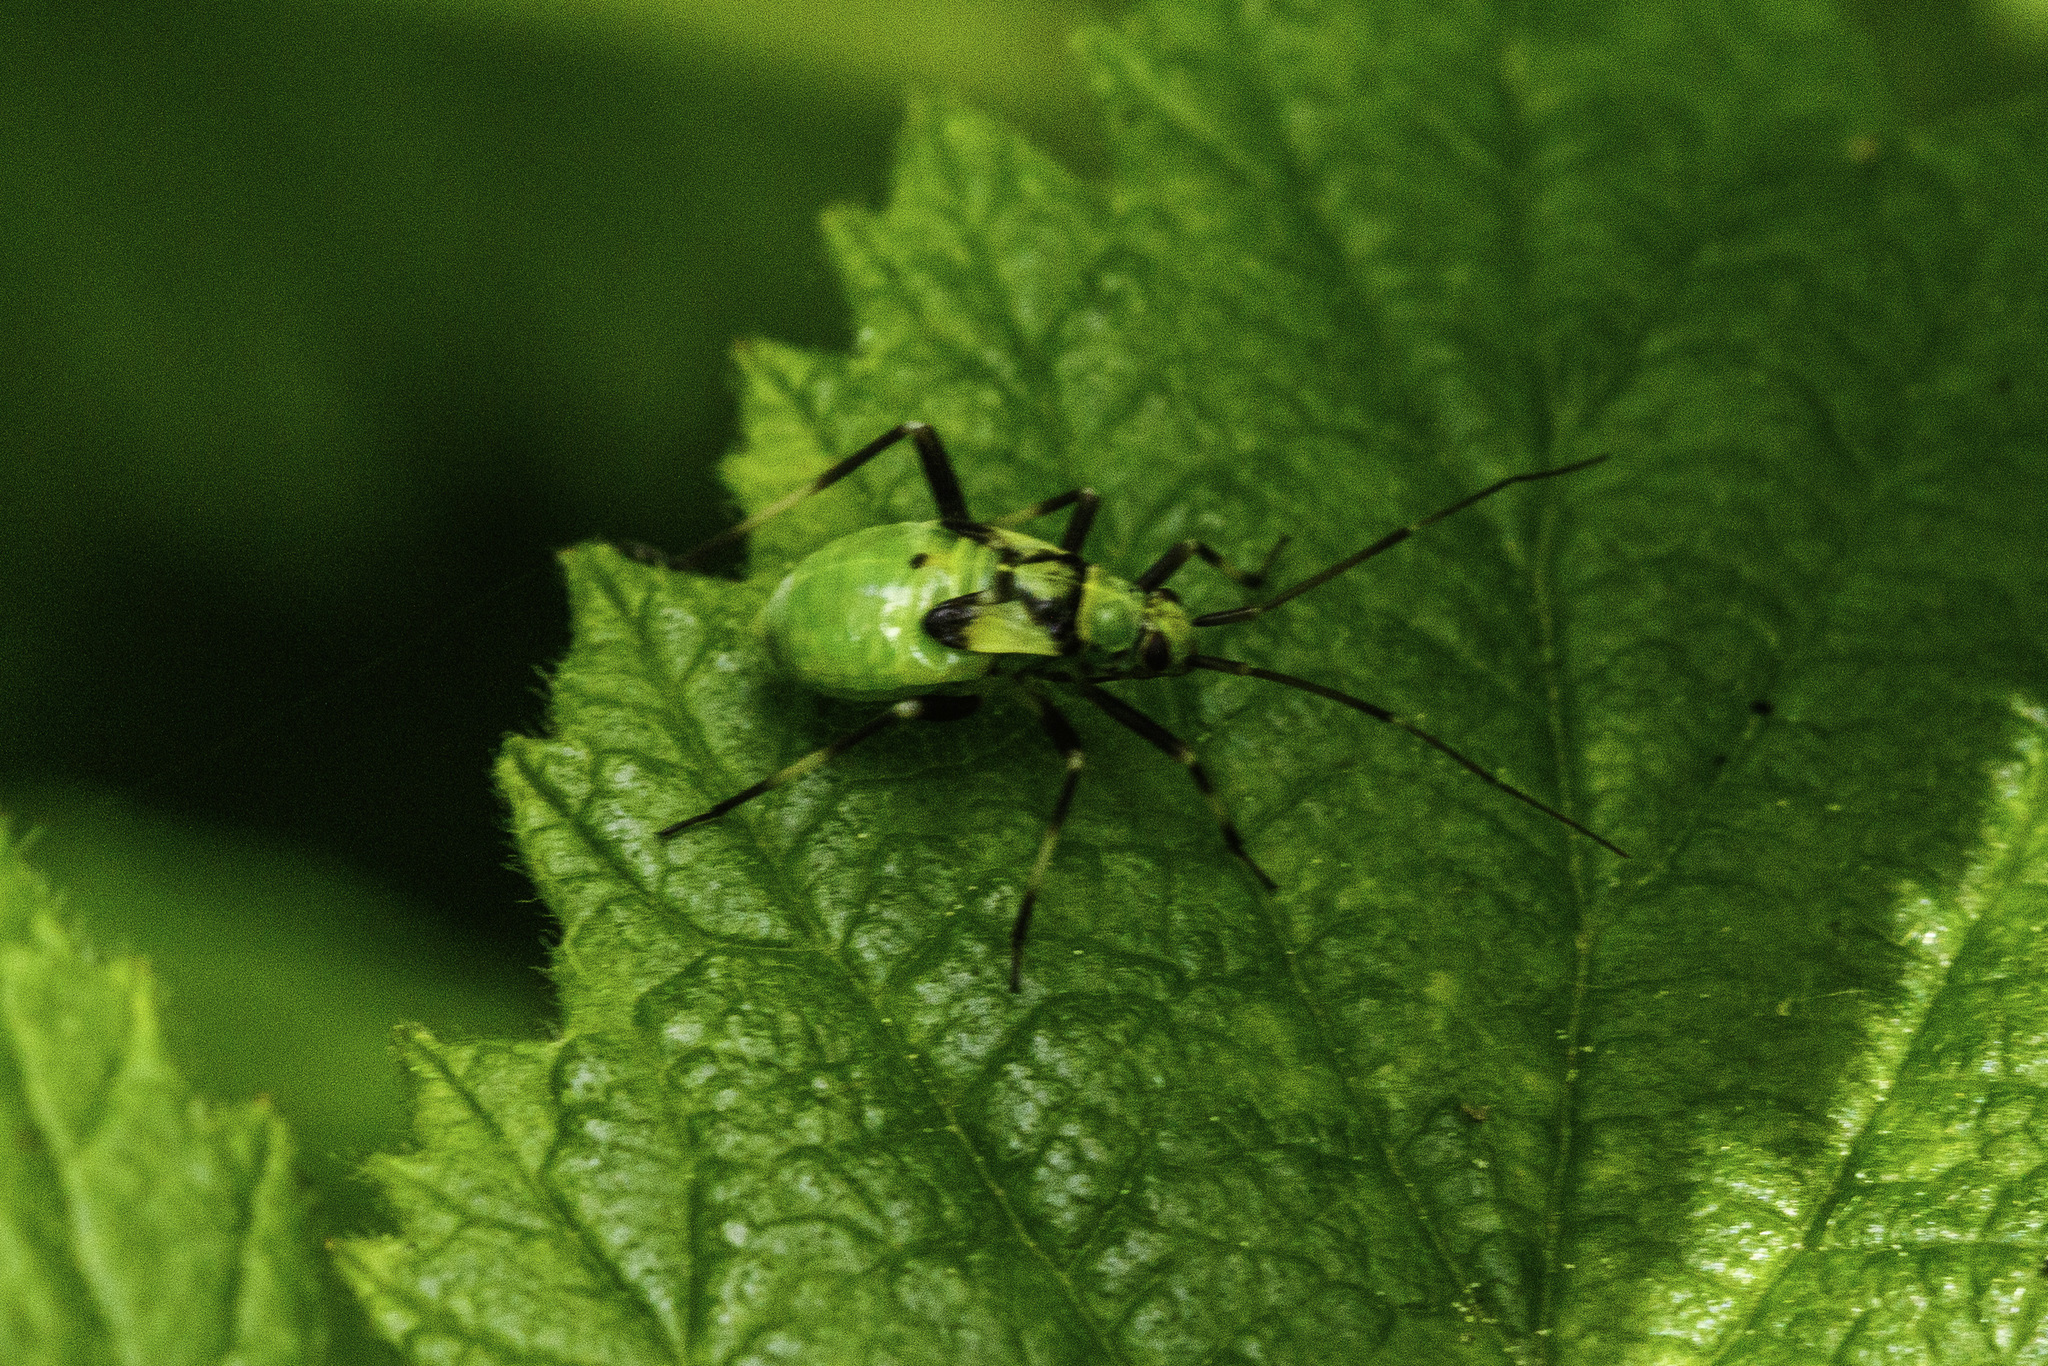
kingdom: Animalia
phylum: Arthropoda
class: Insecta
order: Hemiptera
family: Miridae
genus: Calocoris
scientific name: Calocoris alpestris
